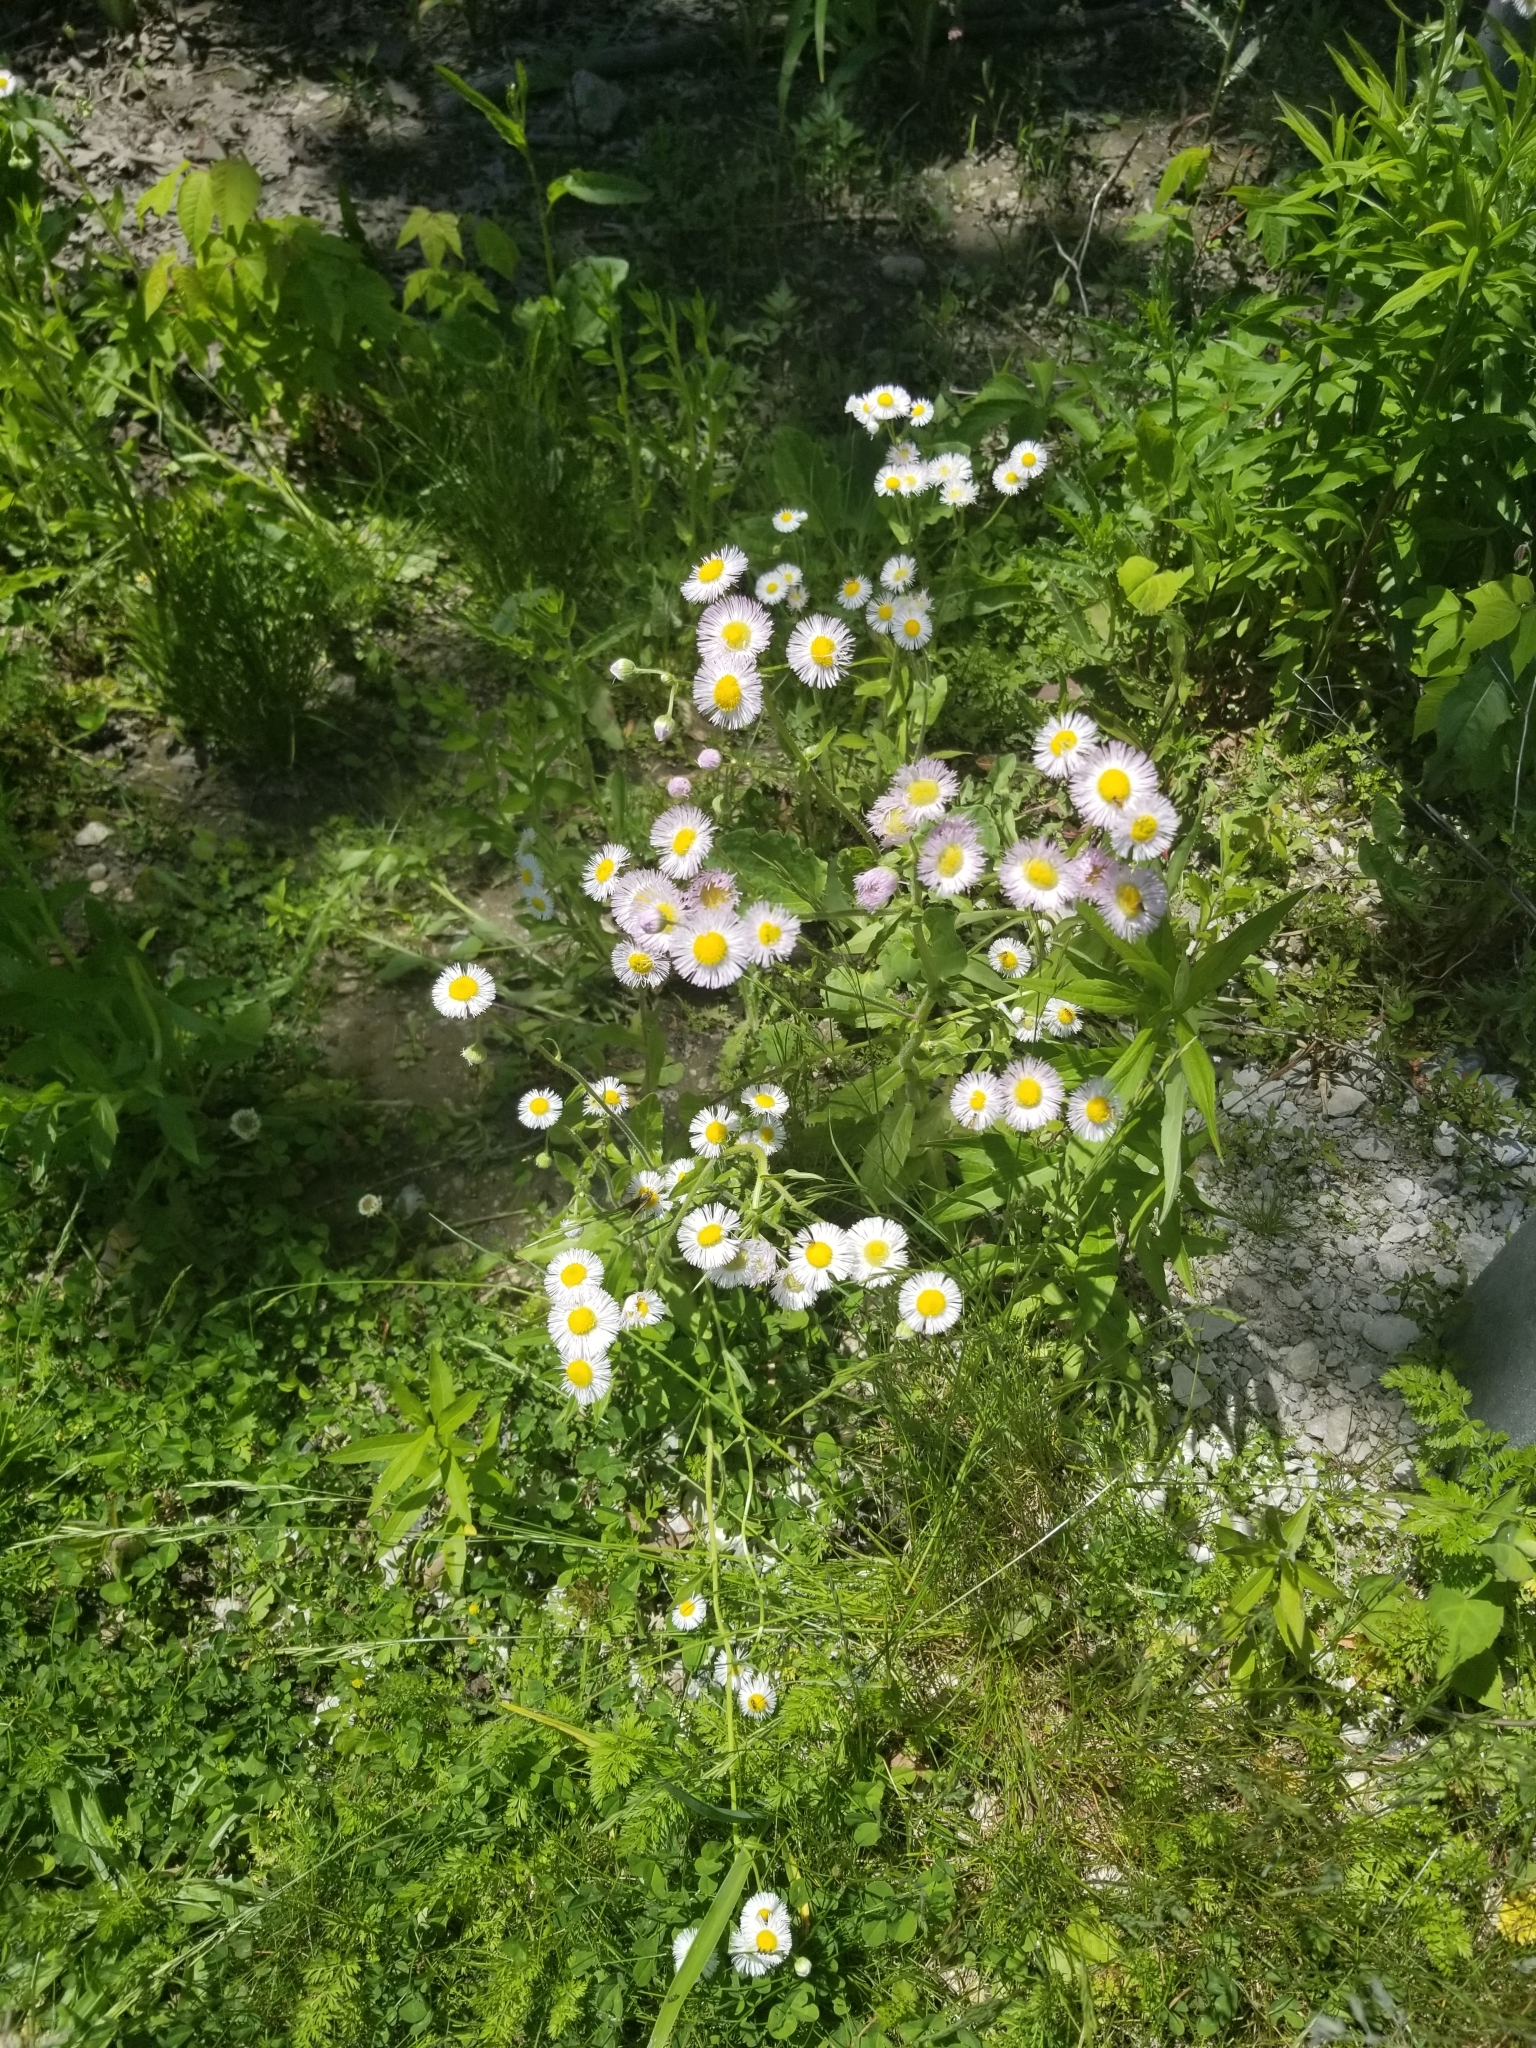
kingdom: Plantae
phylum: Tracheophyta
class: Magnoliopsida
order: Asterales
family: Asteraceae
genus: Erigeron
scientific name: Erigeron philadelphicus
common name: Robin's-plantain
